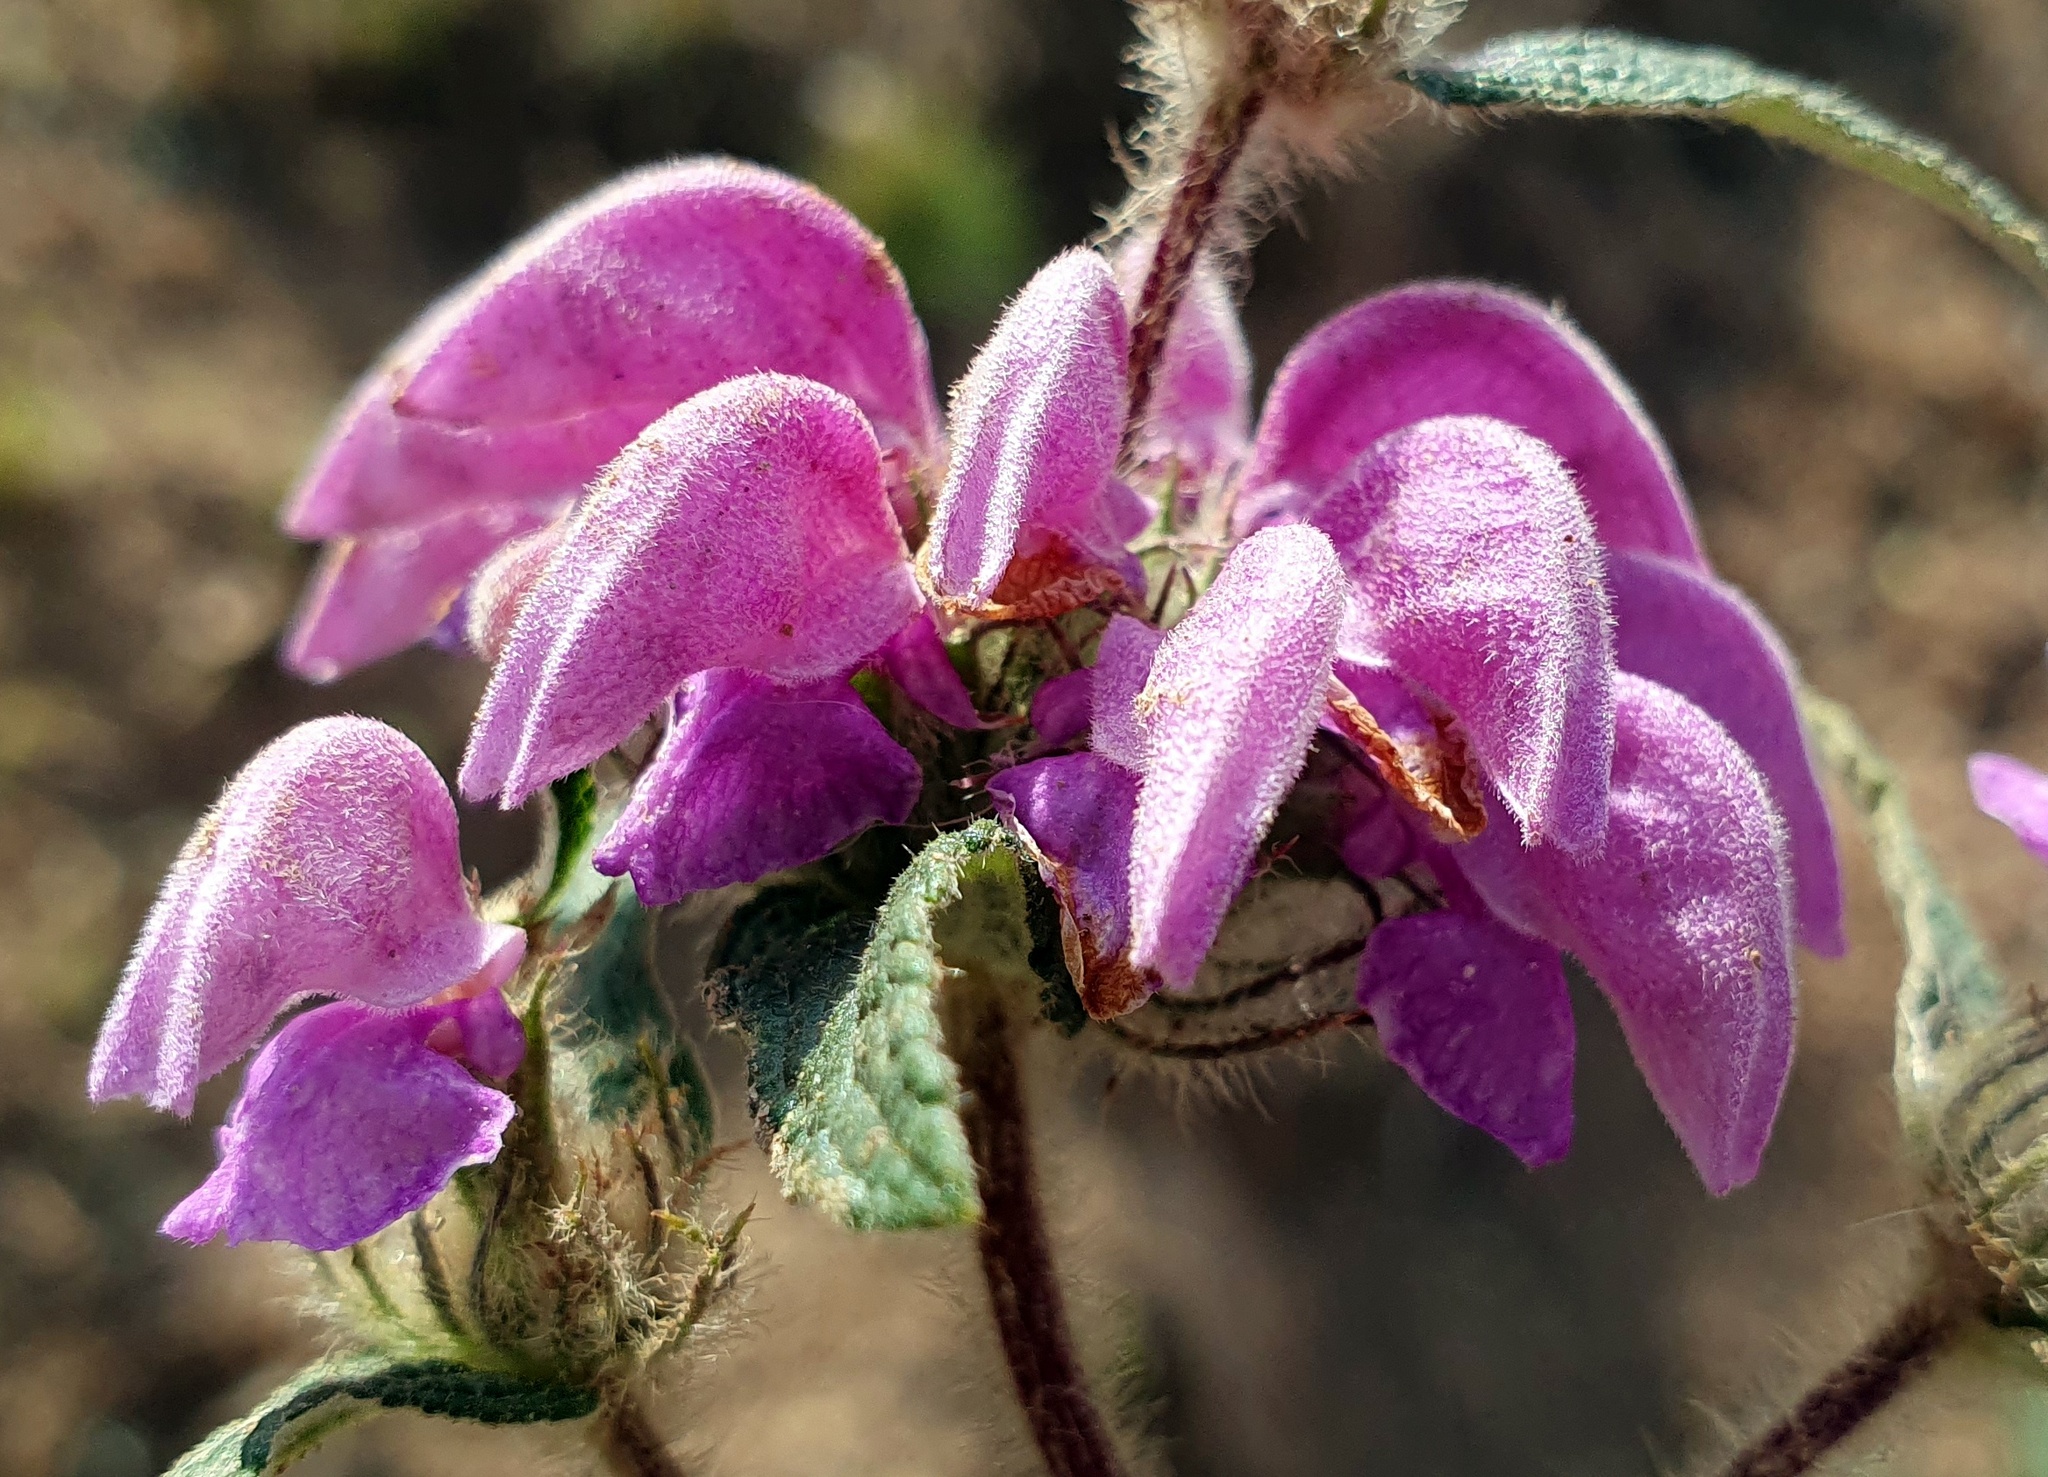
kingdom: Plantae
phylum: Tracheophyta
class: Magnoliopsida
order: Lamiales
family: Lamiaceae
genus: Phlomis
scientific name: Phlomis herba-venti
